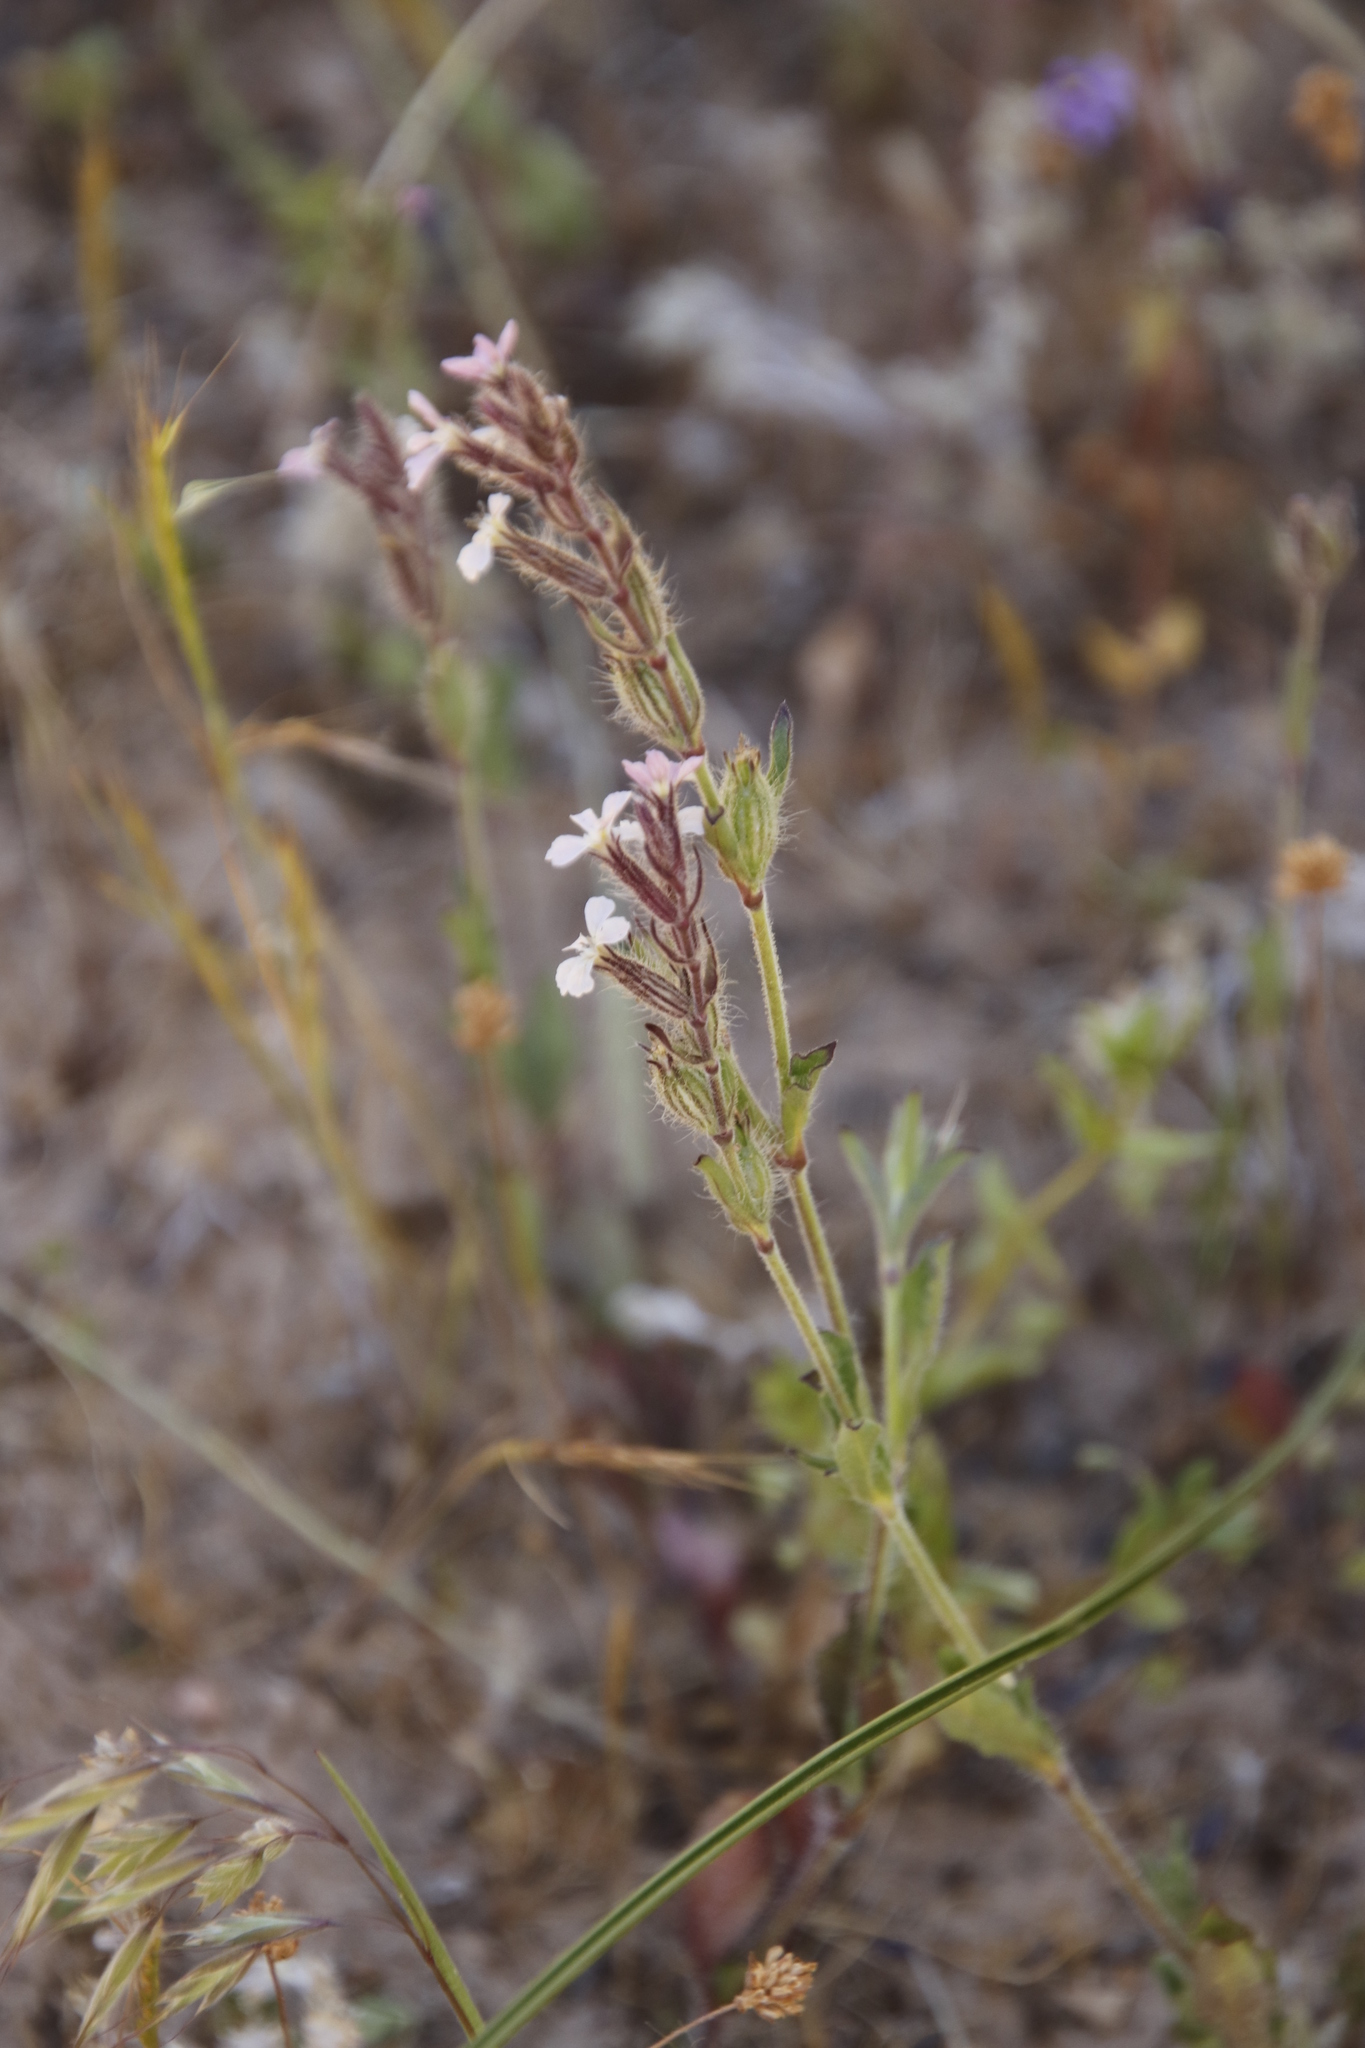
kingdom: Plantae
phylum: Tracheophyta
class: Magnoliopsida
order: Caryophyllales
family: Caryophyllaceae
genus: Silene
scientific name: Silene gallica
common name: Small-flowered catchfly
